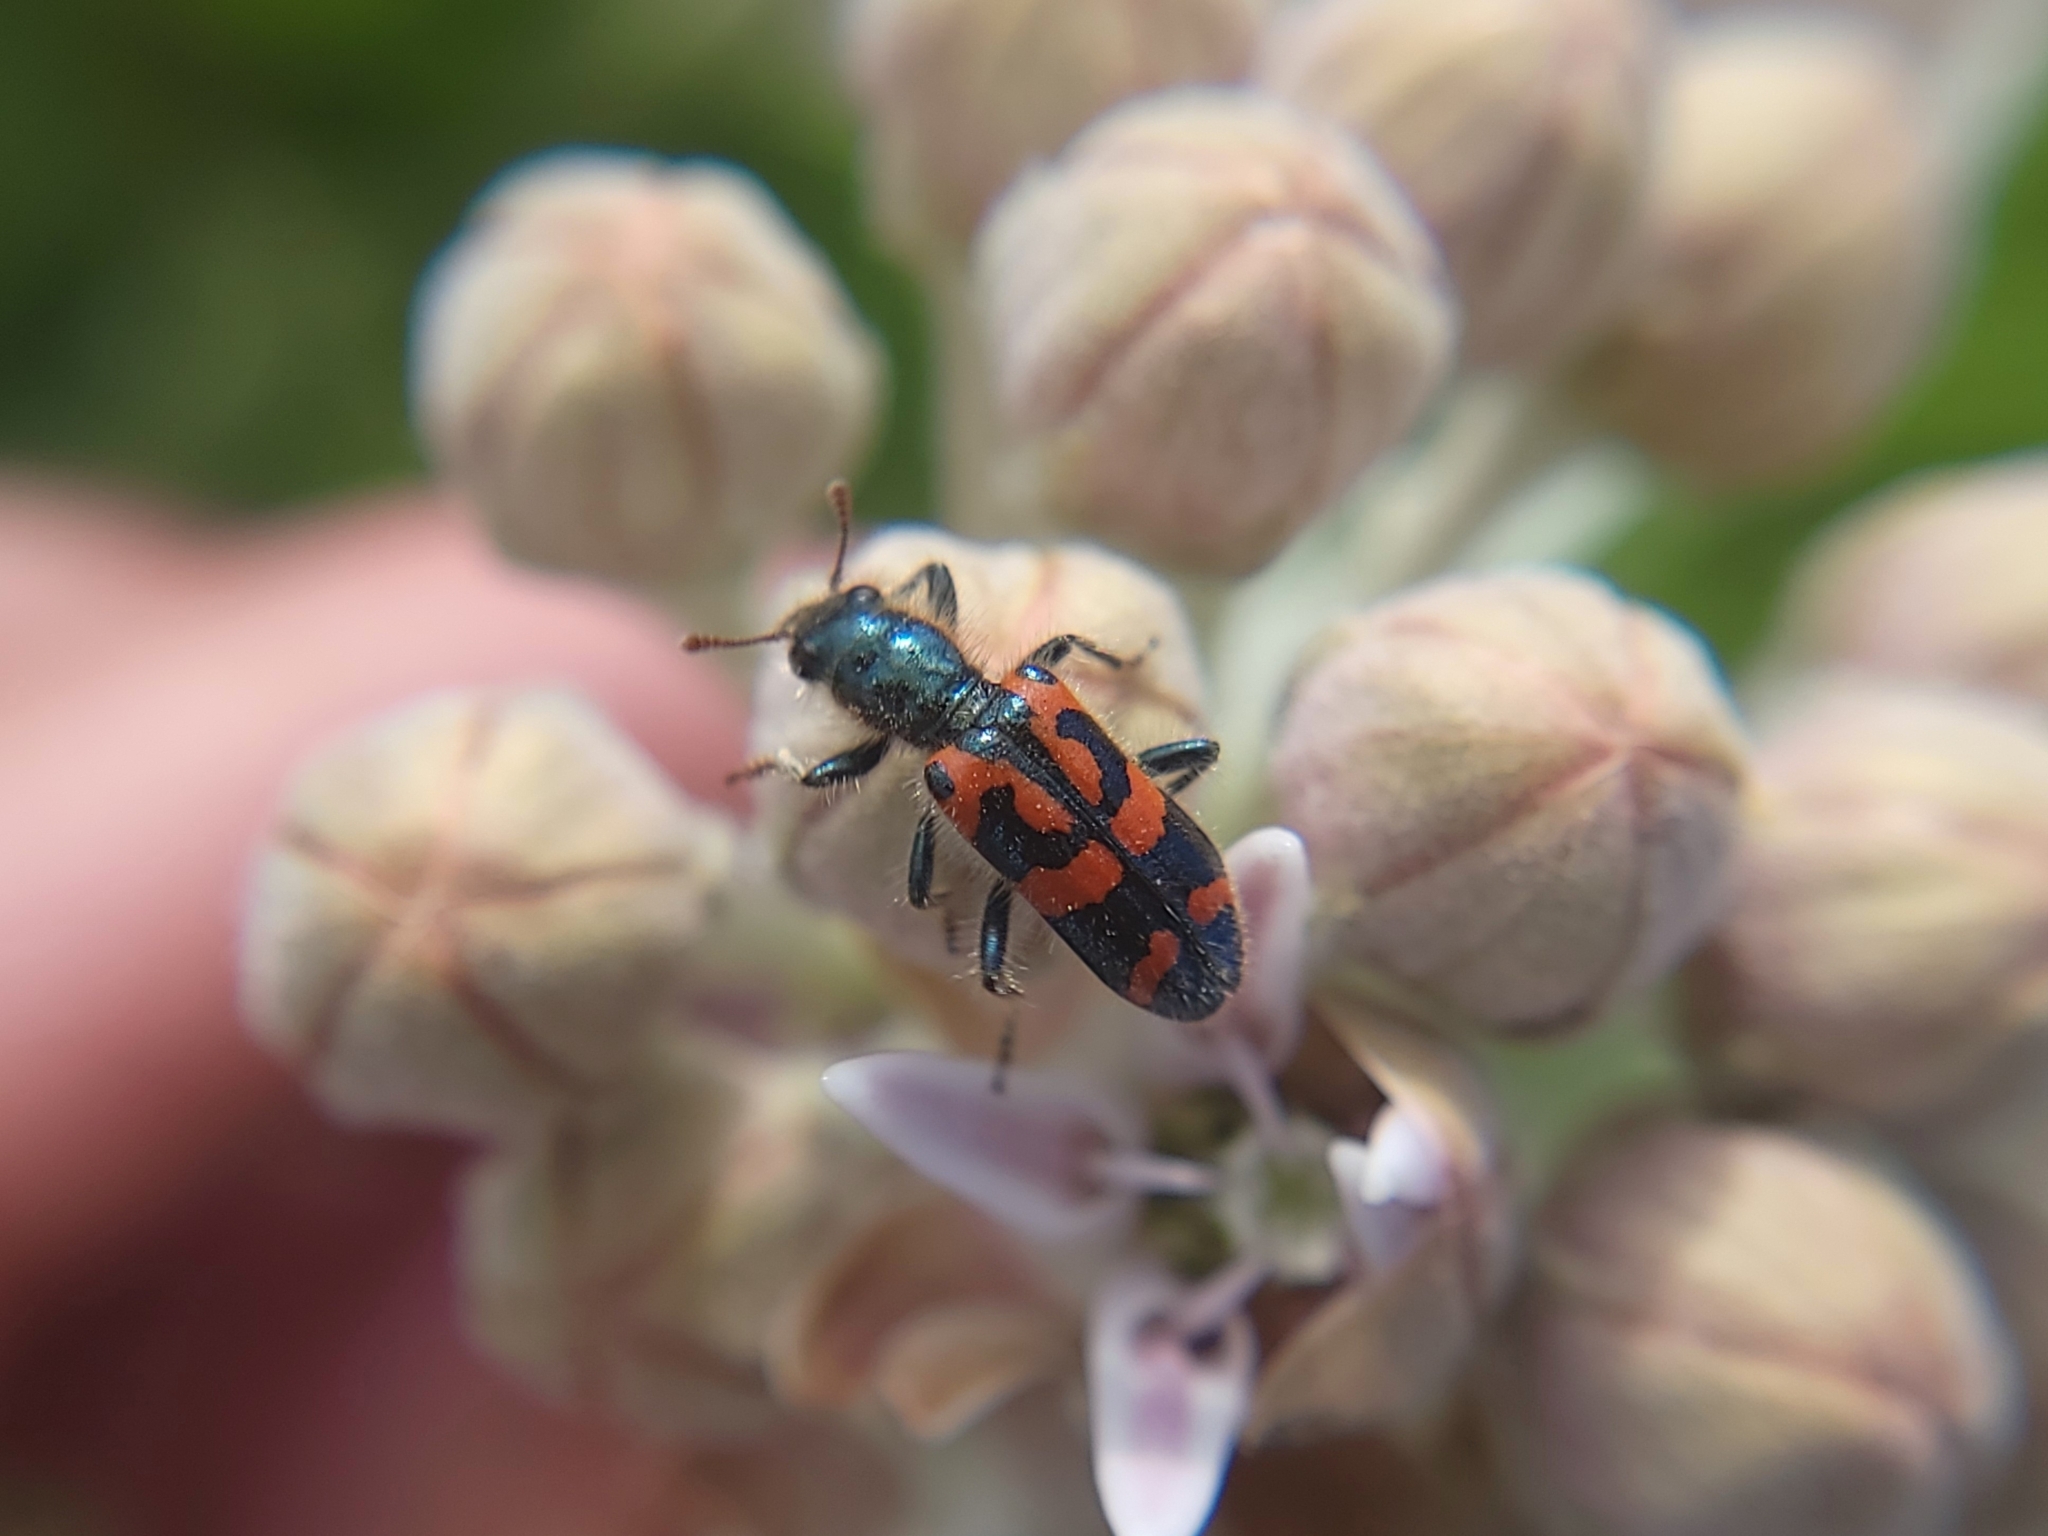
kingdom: Animalia
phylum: Arthropoda
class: Insecta
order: Coleoptera
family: Cleridae
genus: Trichodes
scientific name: Trichodes ornatus
